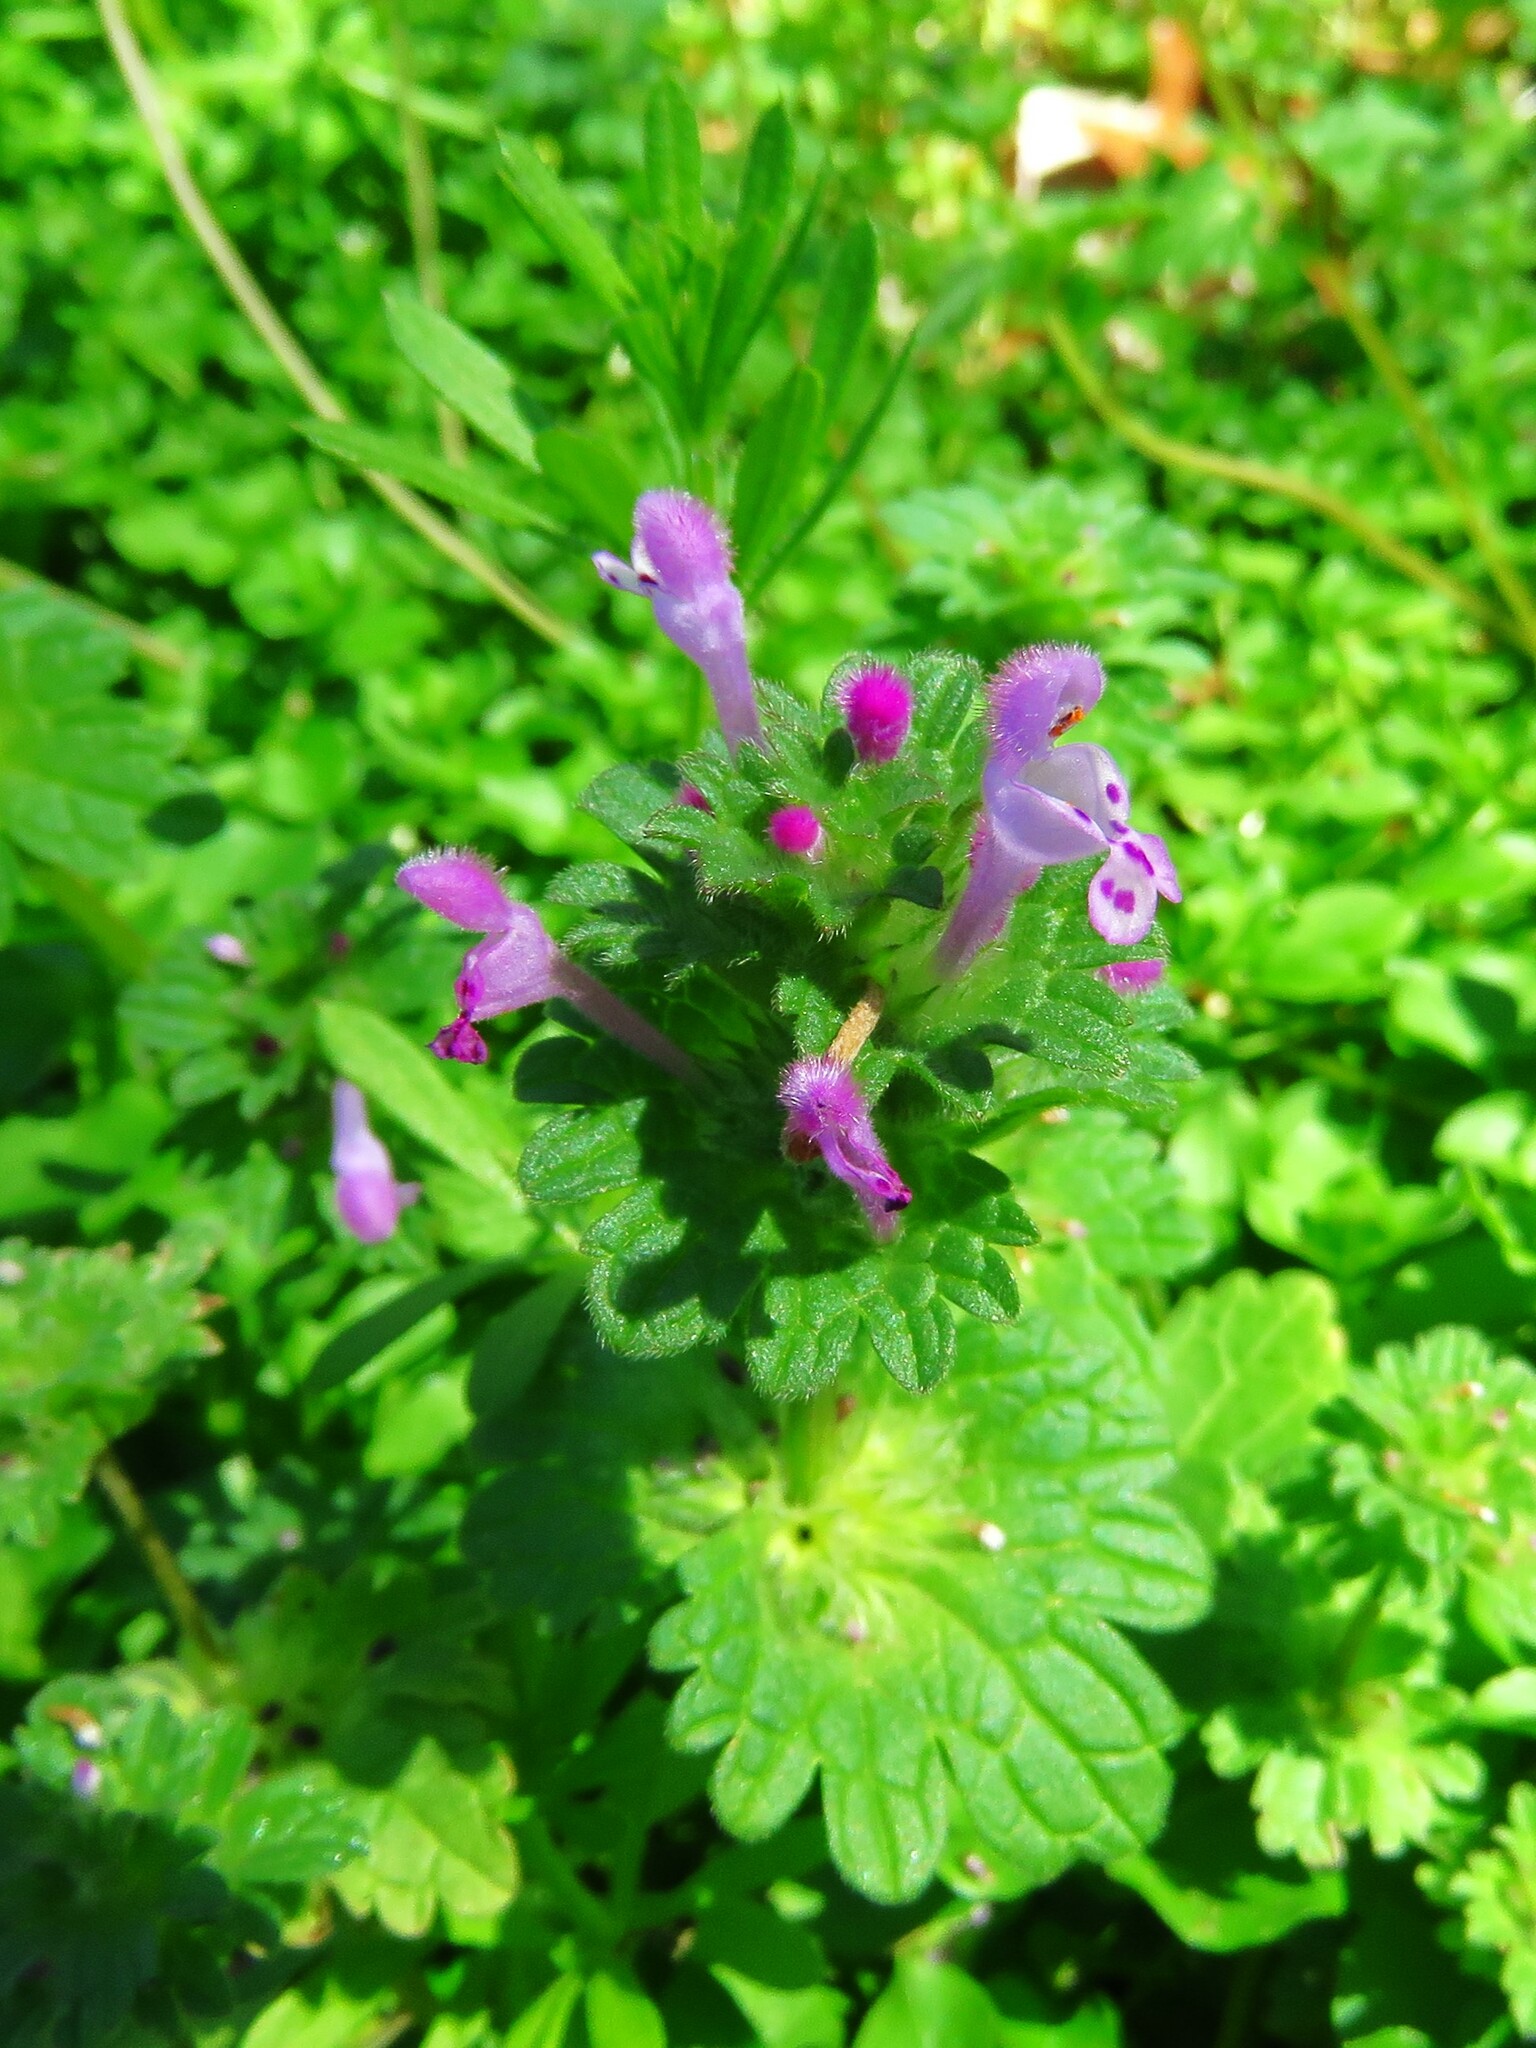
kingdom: Plantae
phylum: Tracheophyta
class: Magnoliopsida
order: Lamiales
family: Lamiaceae
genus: Lamium
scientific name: Lamium amplexicaule
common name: Henbit dead-nettle
